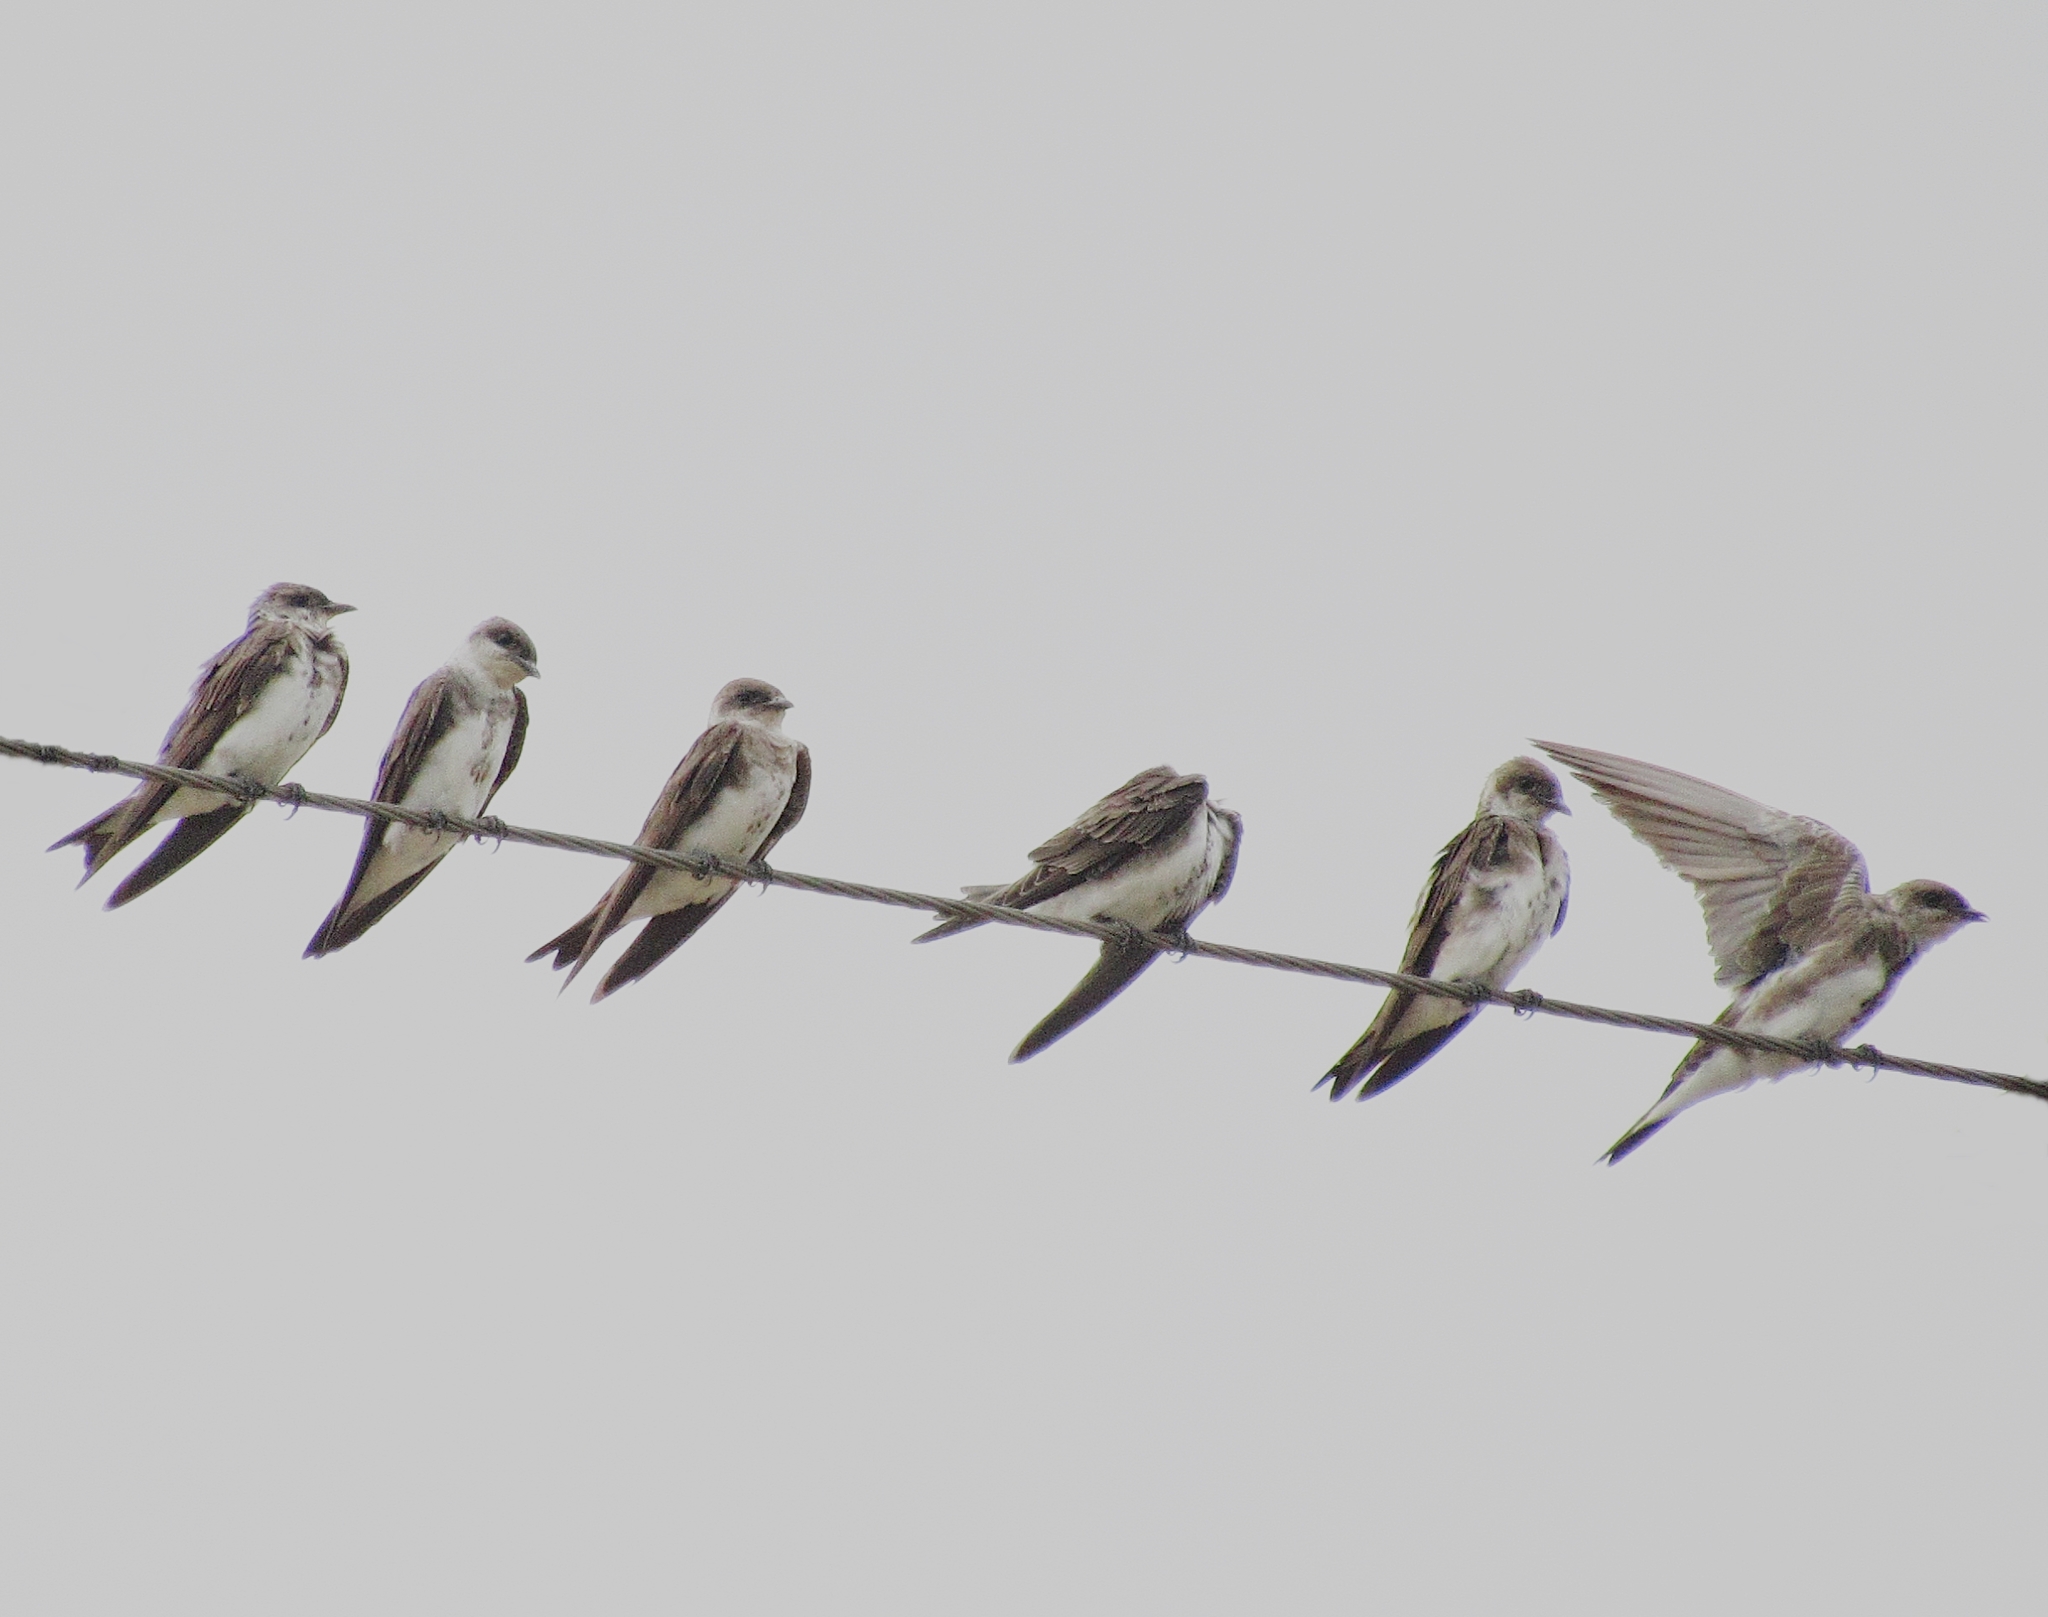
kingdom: Animalia
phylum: Chordata
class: Aves
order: Passeriformes
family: Hirundinidae
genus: Progne
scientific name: Progne tapera
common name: Brown-chested martin
